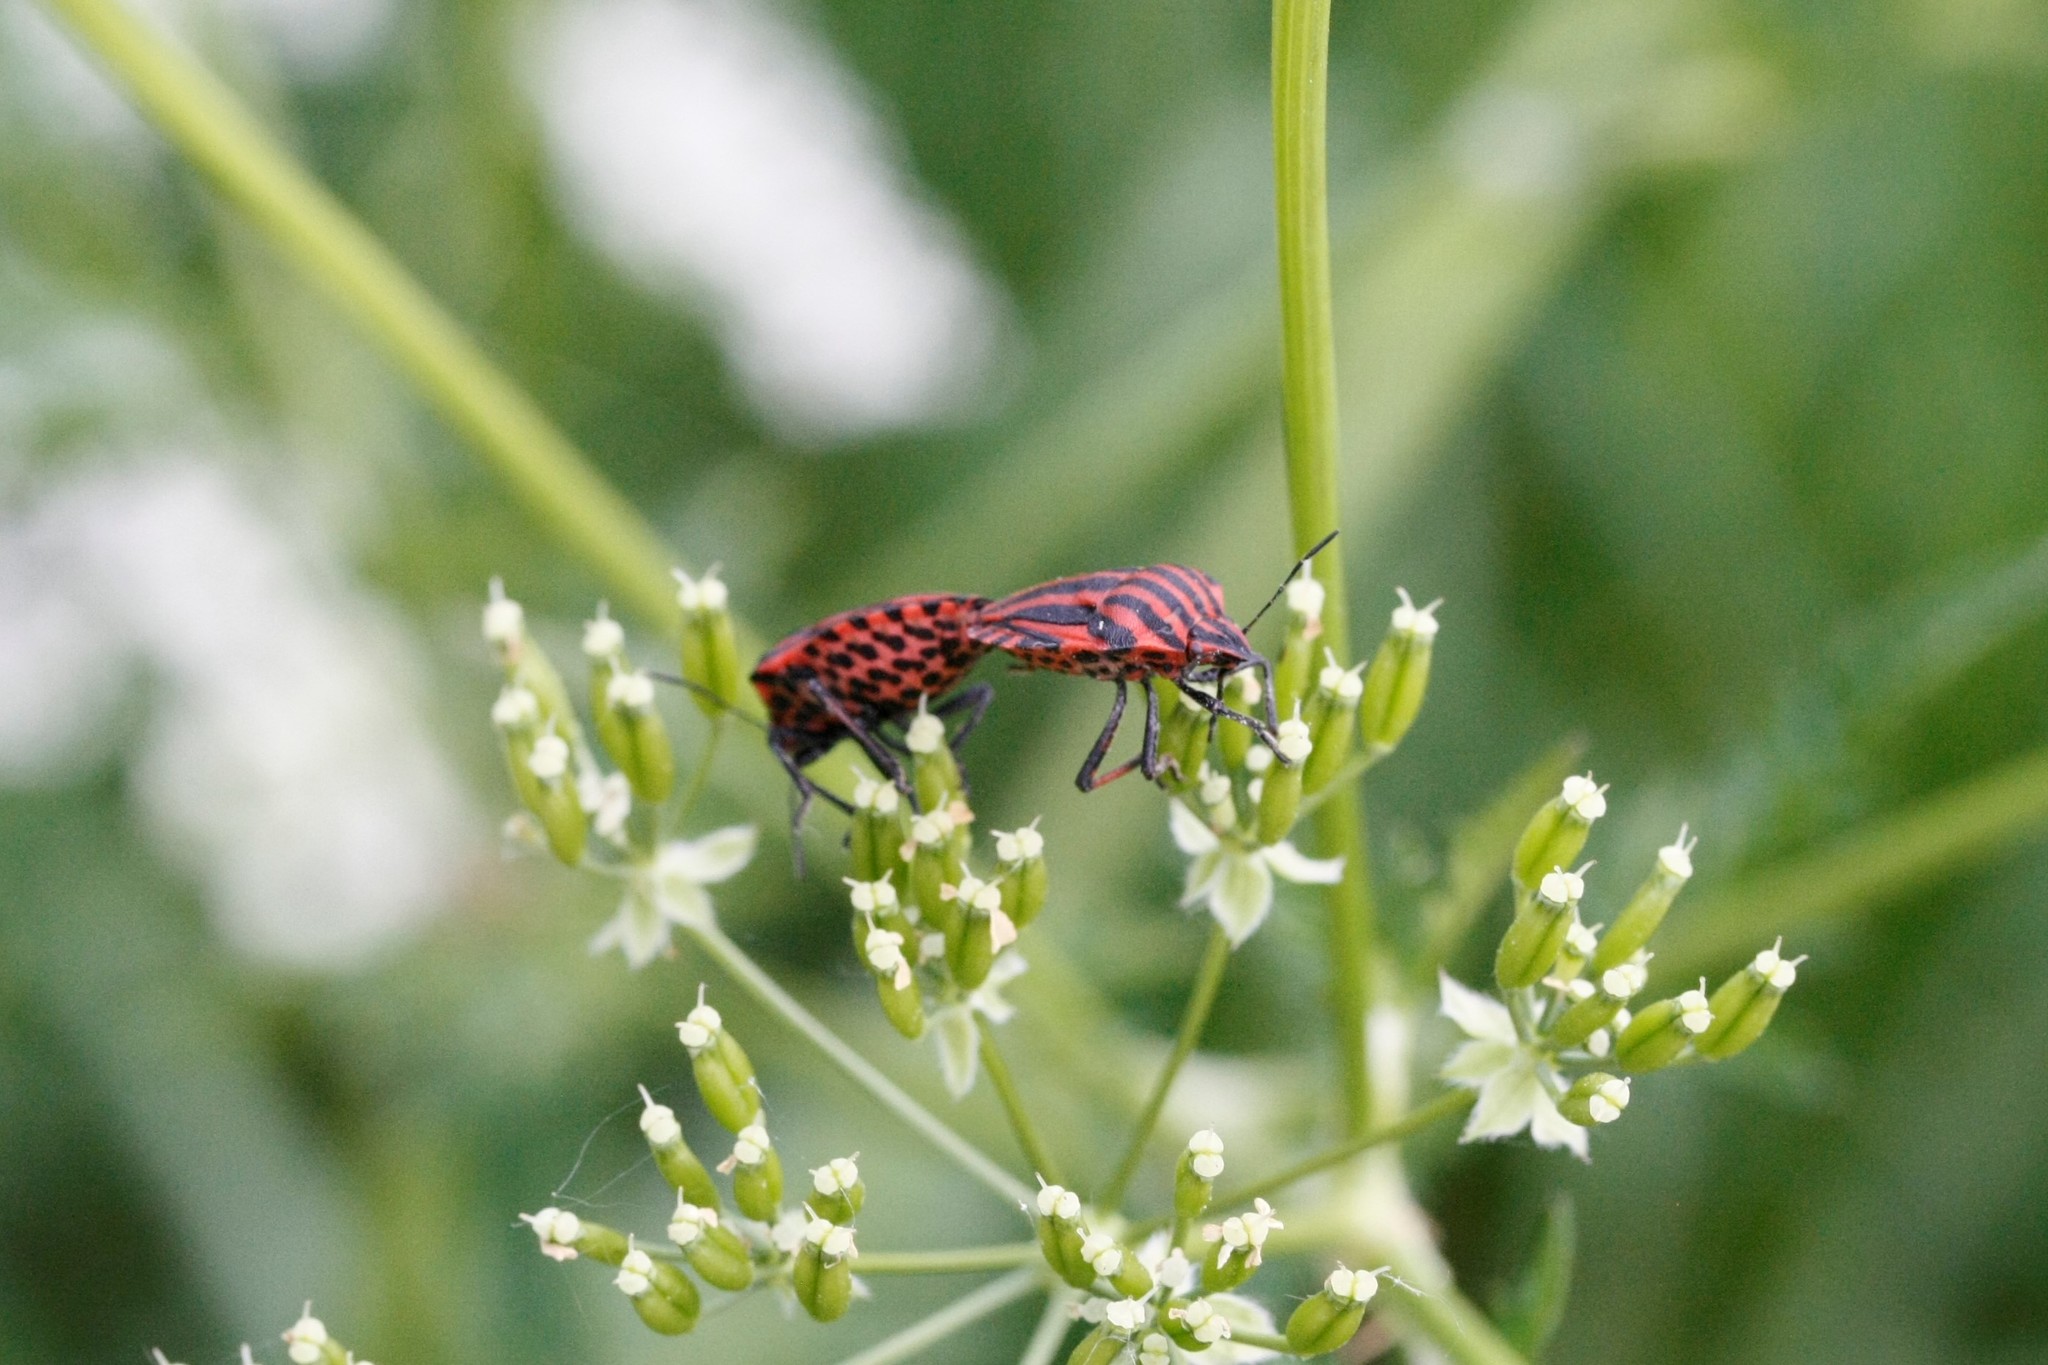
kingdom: Animalia
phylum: Arthropoda
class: Insecta
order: Hemiptera
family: Pentatomidae
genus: Graphosoma
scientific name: Graphosoma italicum
